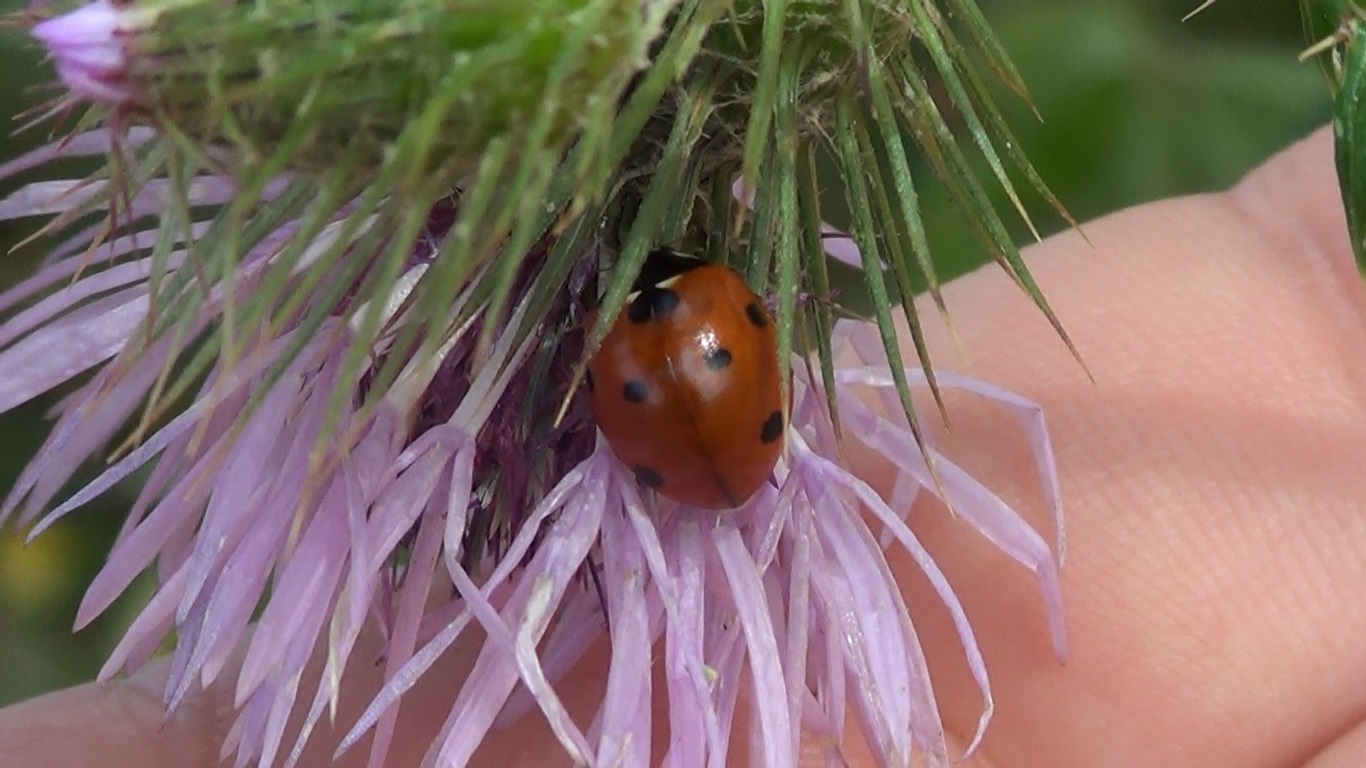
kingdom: Animalia
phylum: Arthropoda
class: Insecta
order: Coleoptera
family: Coccinellidae
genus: Coccinella
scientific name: Coccinella septempunctata
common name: Sevenspotted lady beetle
